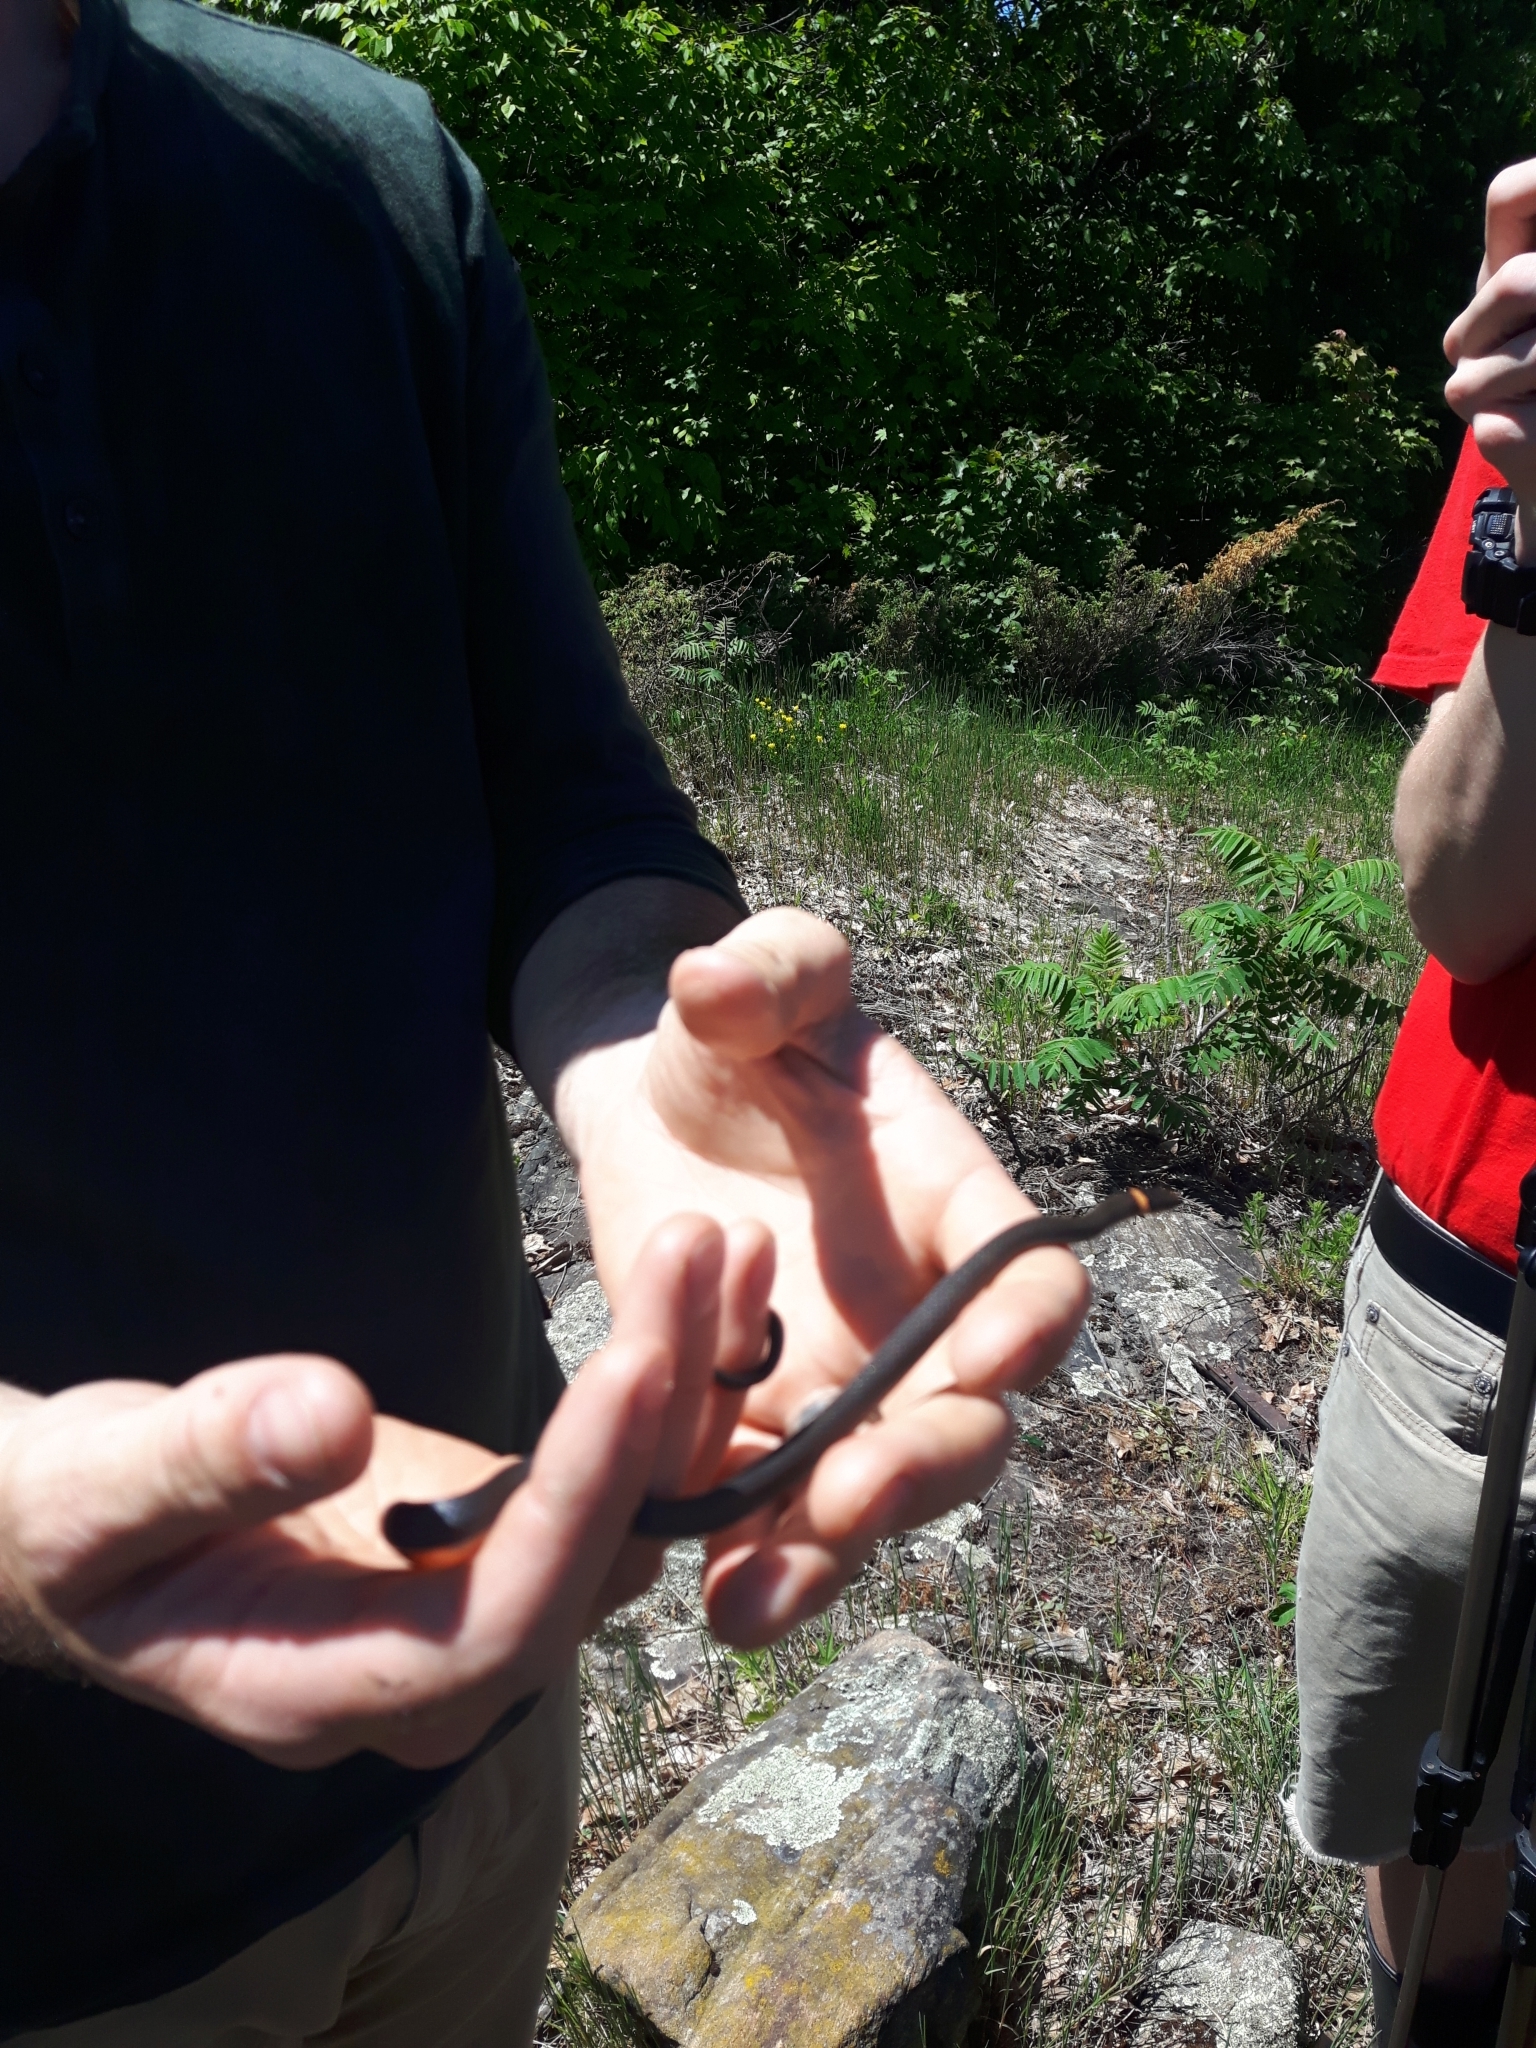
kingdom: Animalia
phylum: Chordata
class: Squamata
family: Colubridae
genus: Diadophis
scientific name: Diadophis punctatus
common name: Ringneck snake
